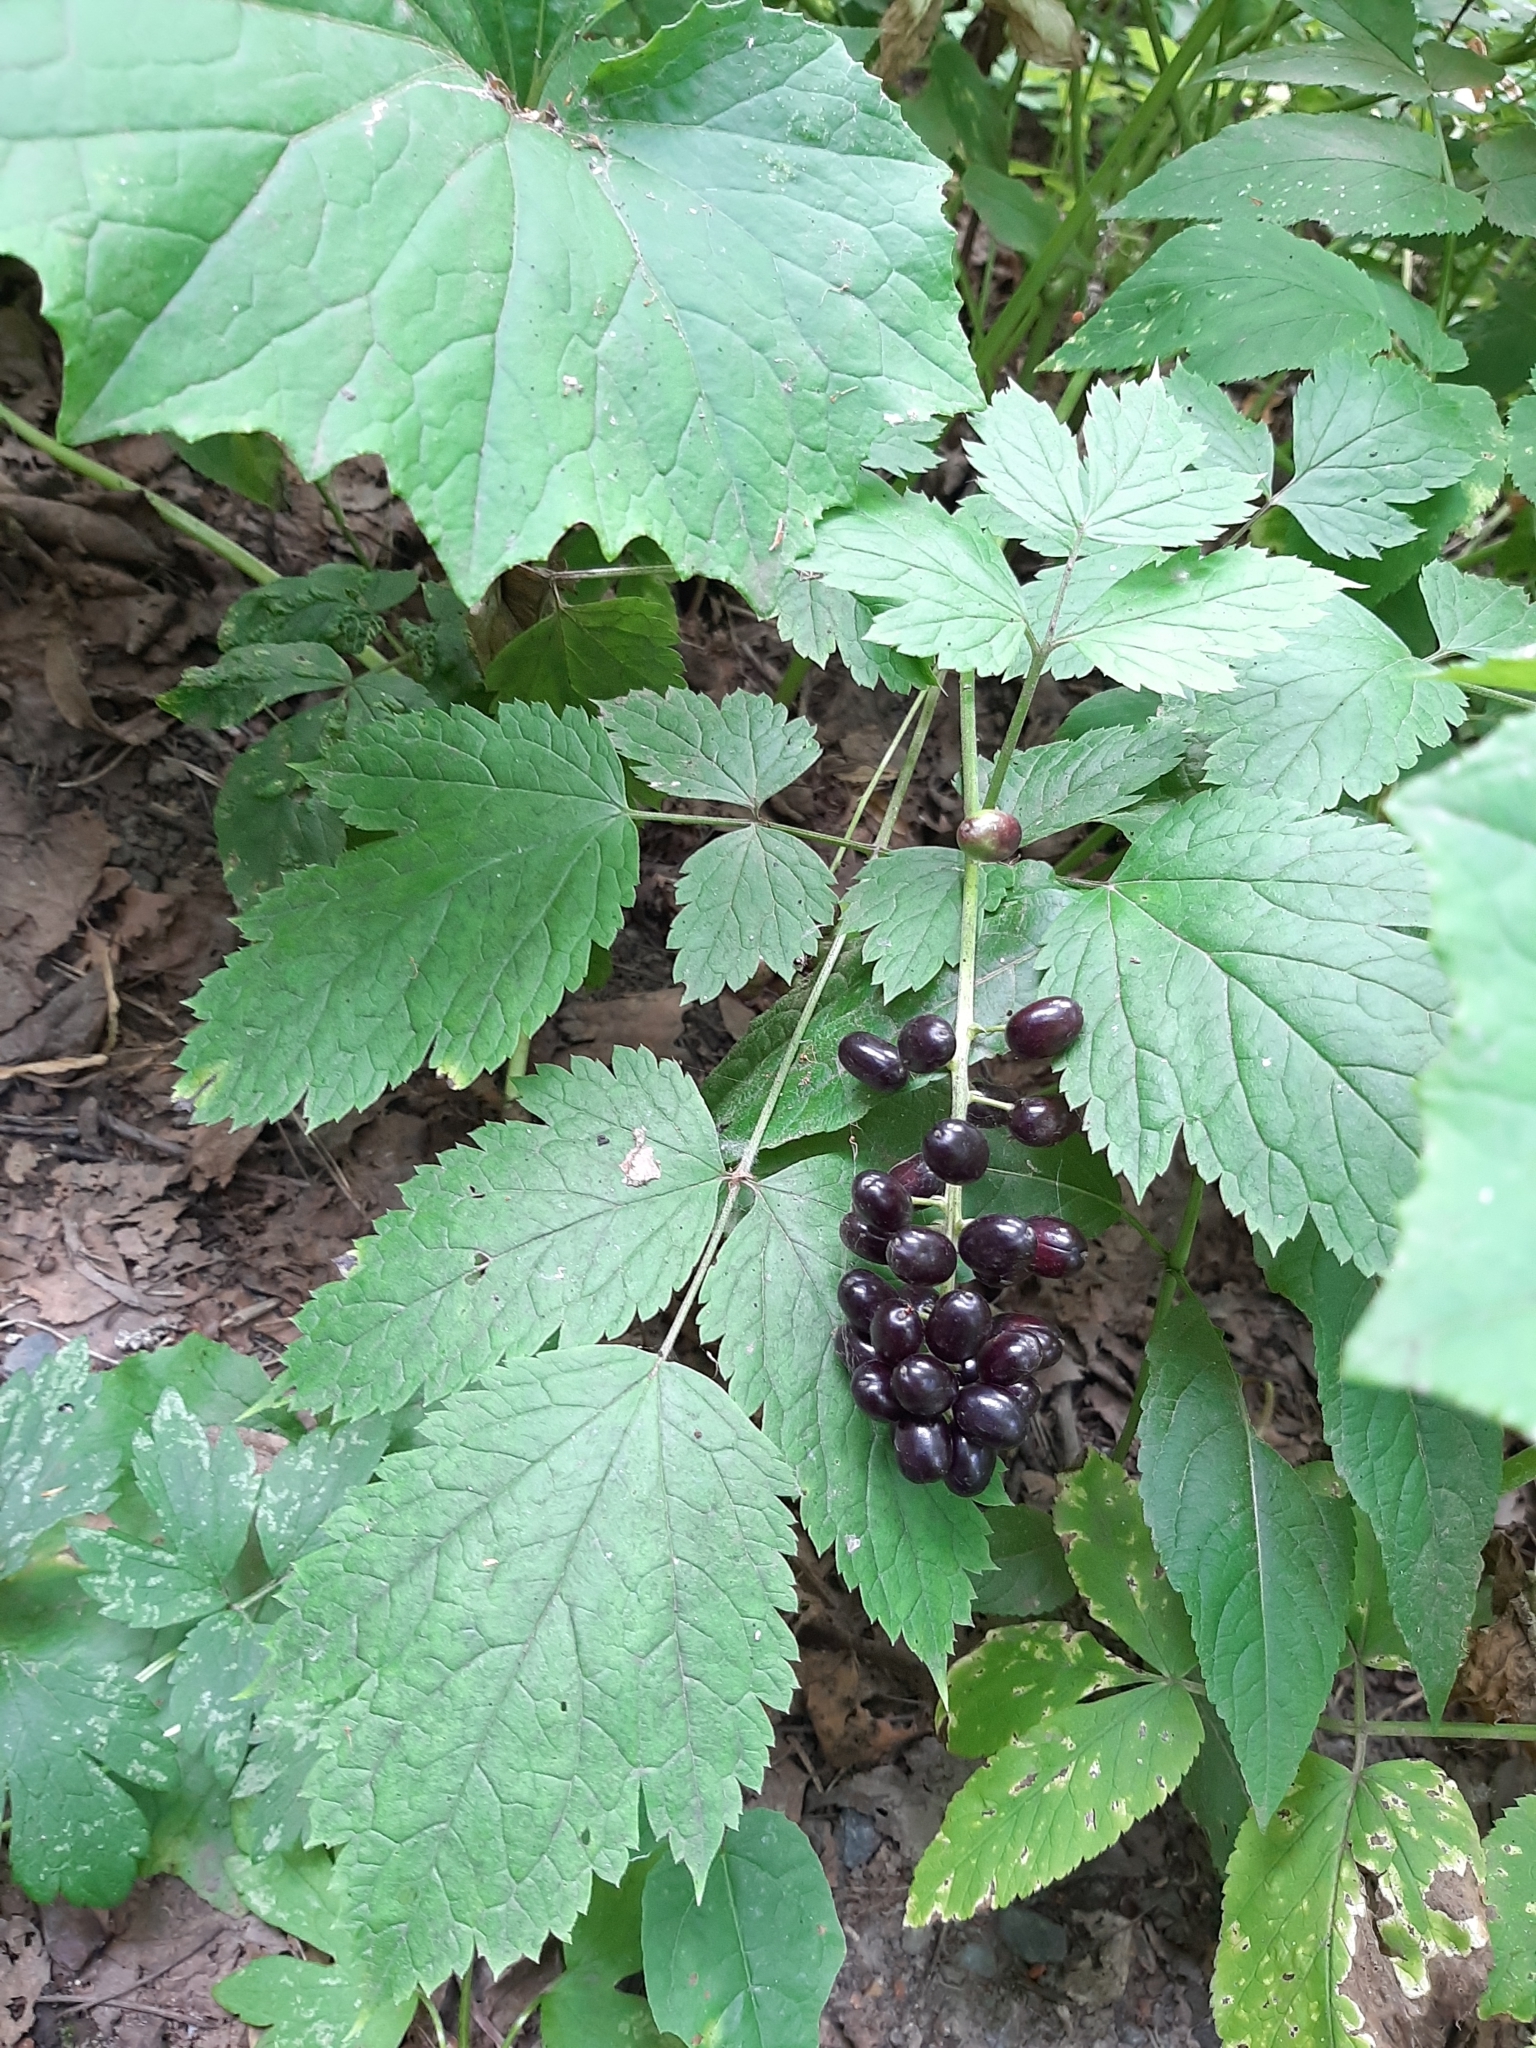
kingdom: Plantae
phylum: Tracheophyta
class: Magnoliopsida
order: Ranunculales
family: Ranunculaceae
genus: Actaea
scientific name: Actaea spicata
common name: Baneberry
